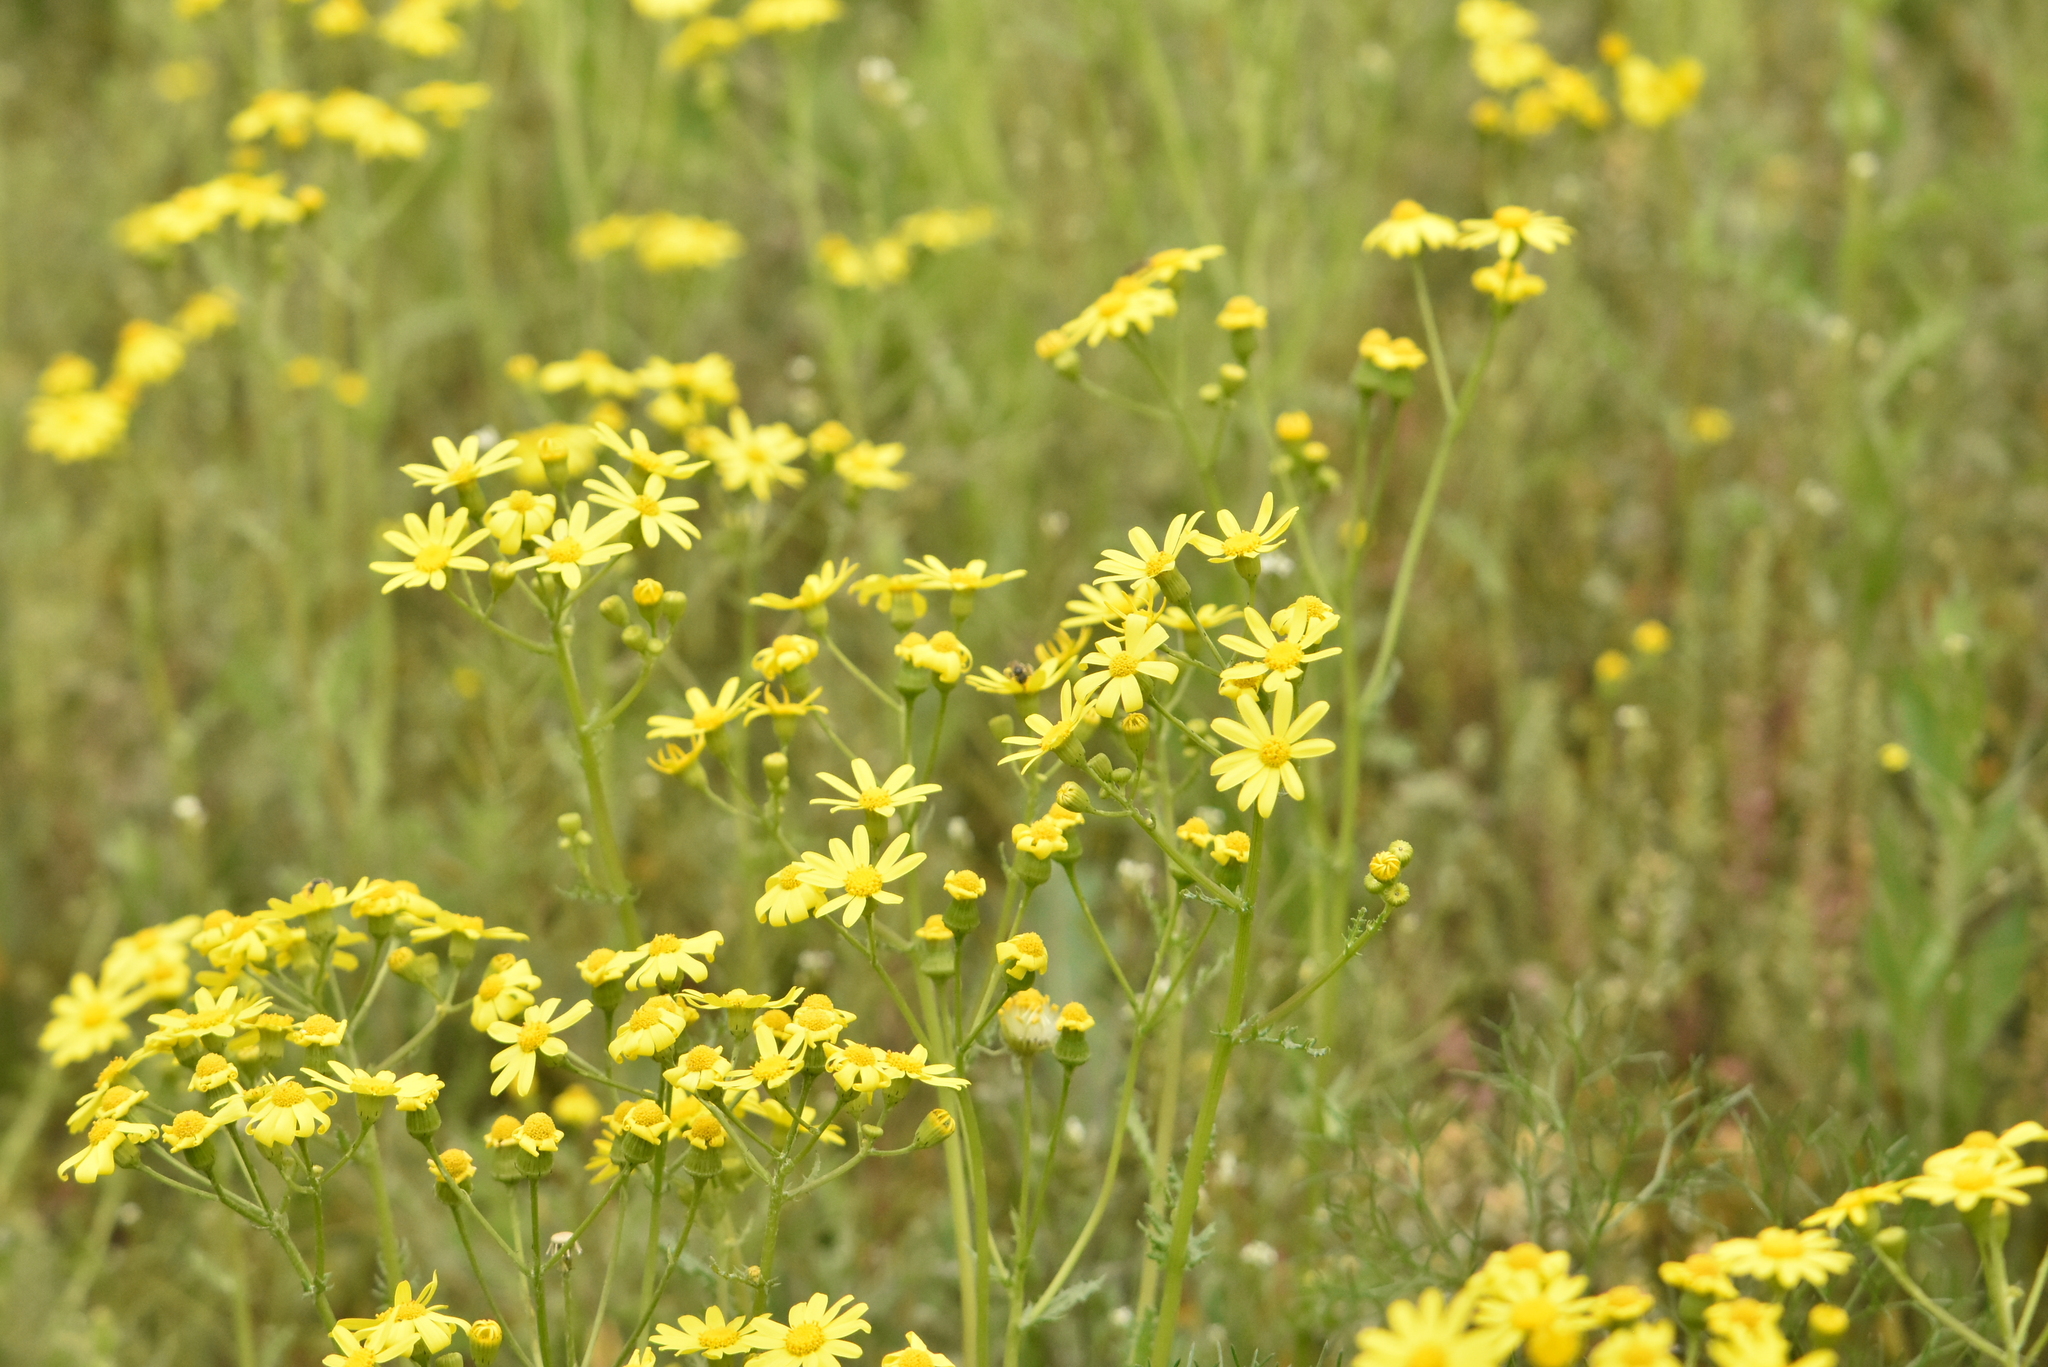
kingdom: Plantae
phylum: Tracheophyta
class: Magnoliopsida
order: Asterales
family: Asteraceae
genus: Senecio
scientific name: Senecio vernalis
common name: Eastern groundsel
